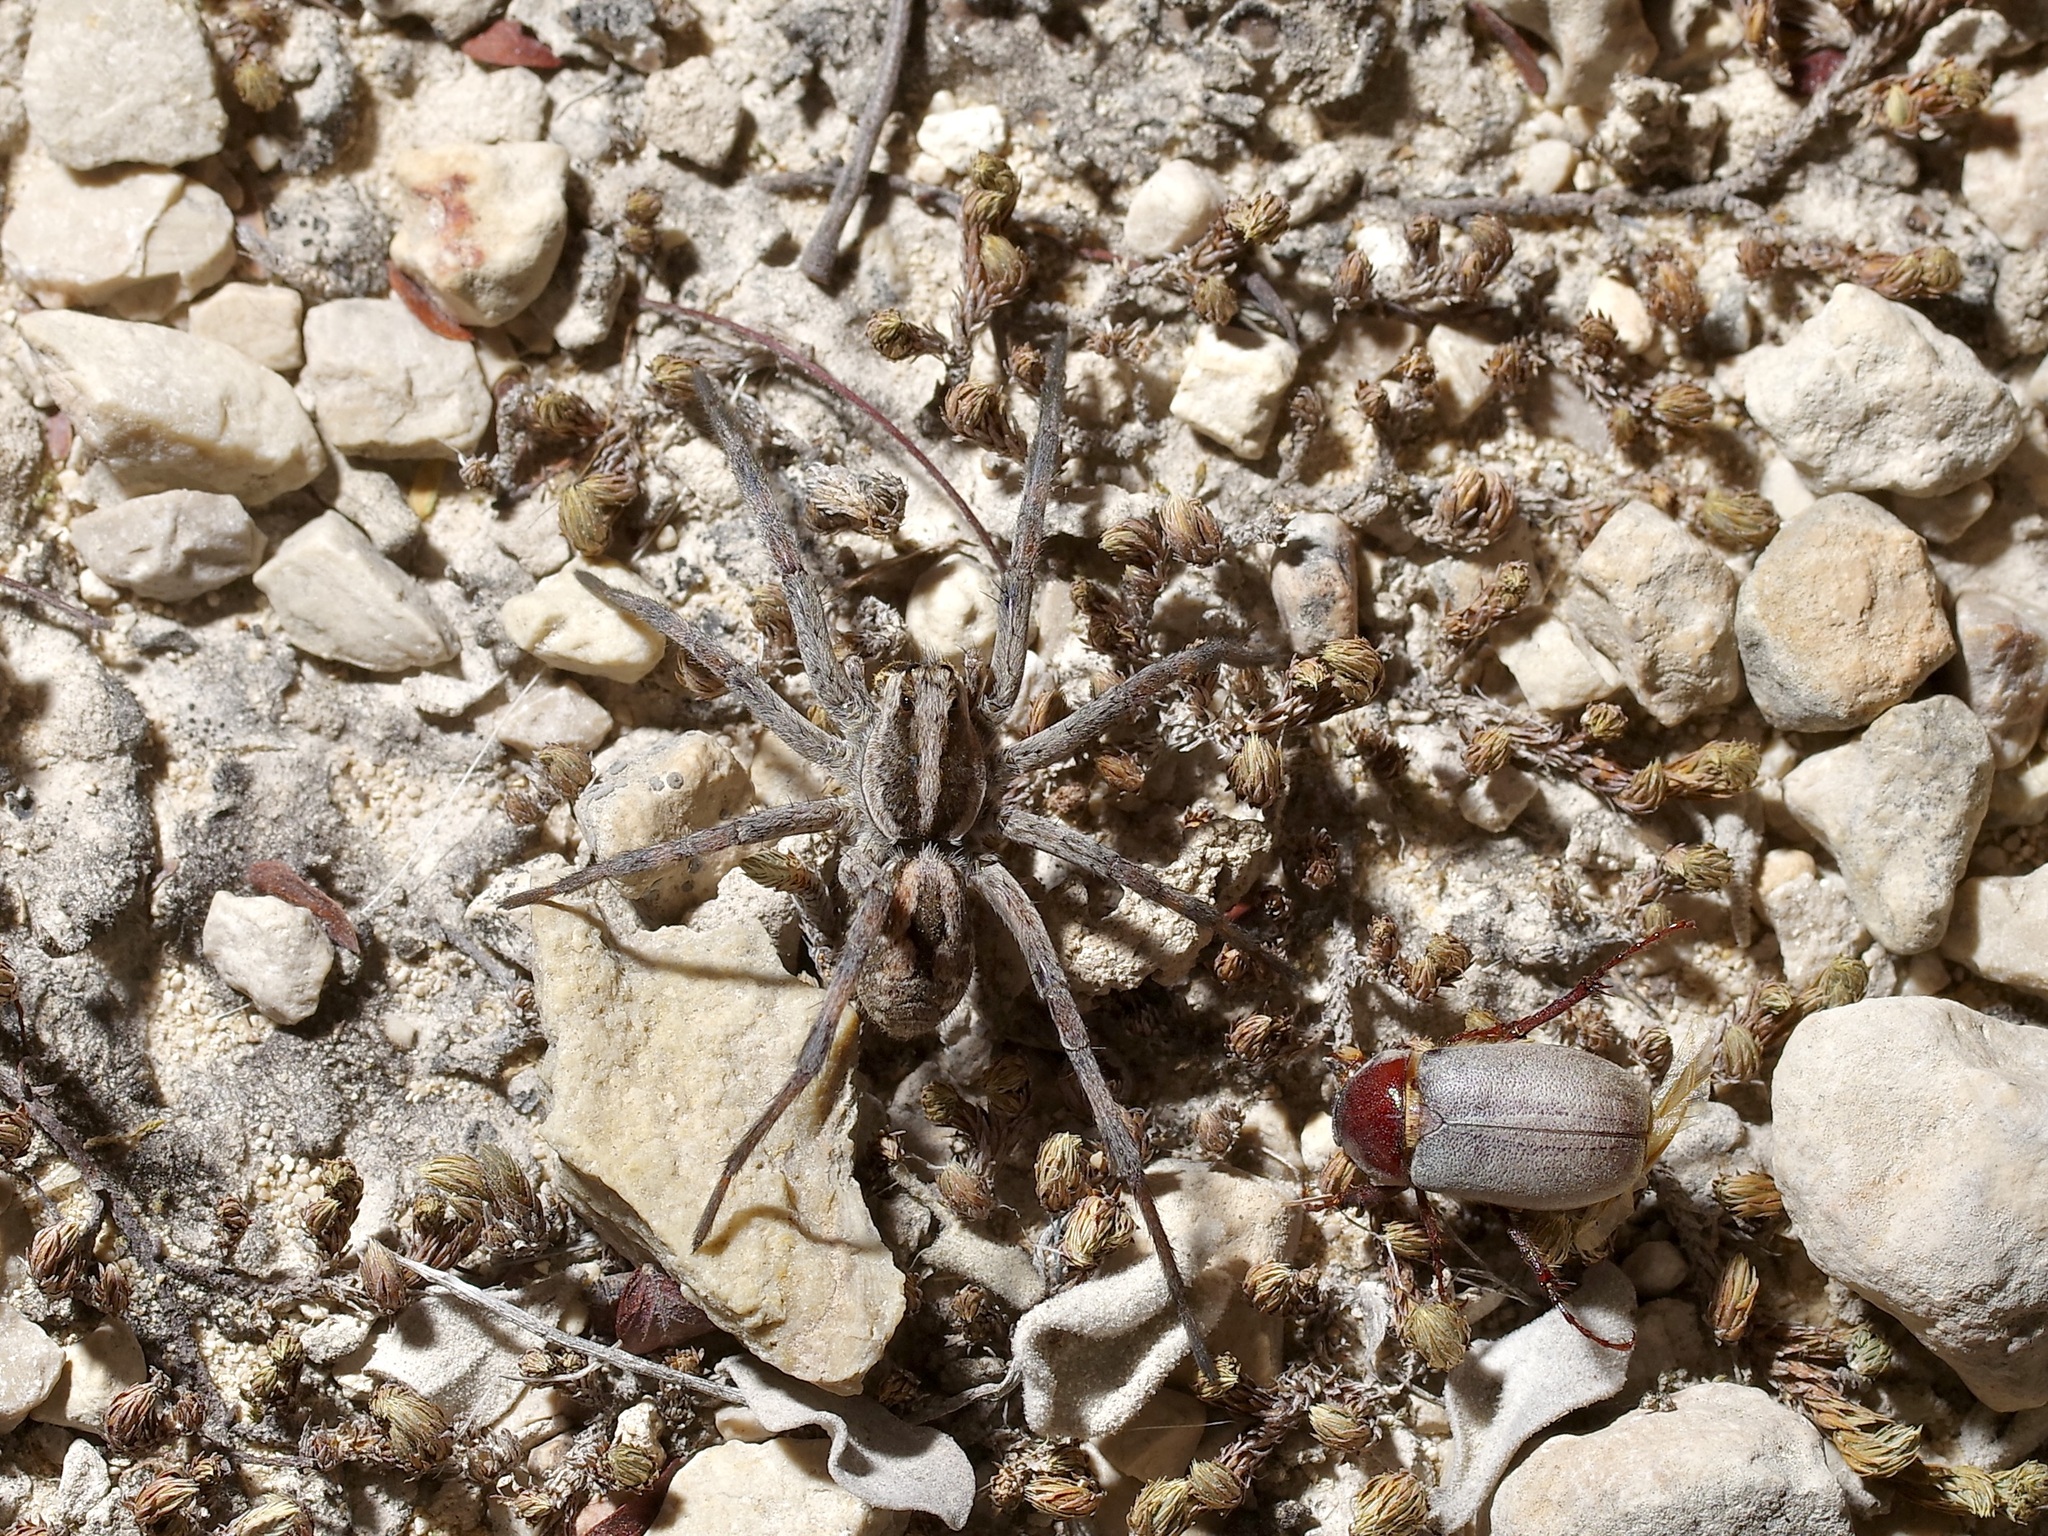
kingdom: Animalia
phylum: Arthropoda
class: Arachnida
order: Araneae
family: Lycosidae
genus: Hogna
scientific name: Hogna carolinensis
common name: Carolina wolf spider
